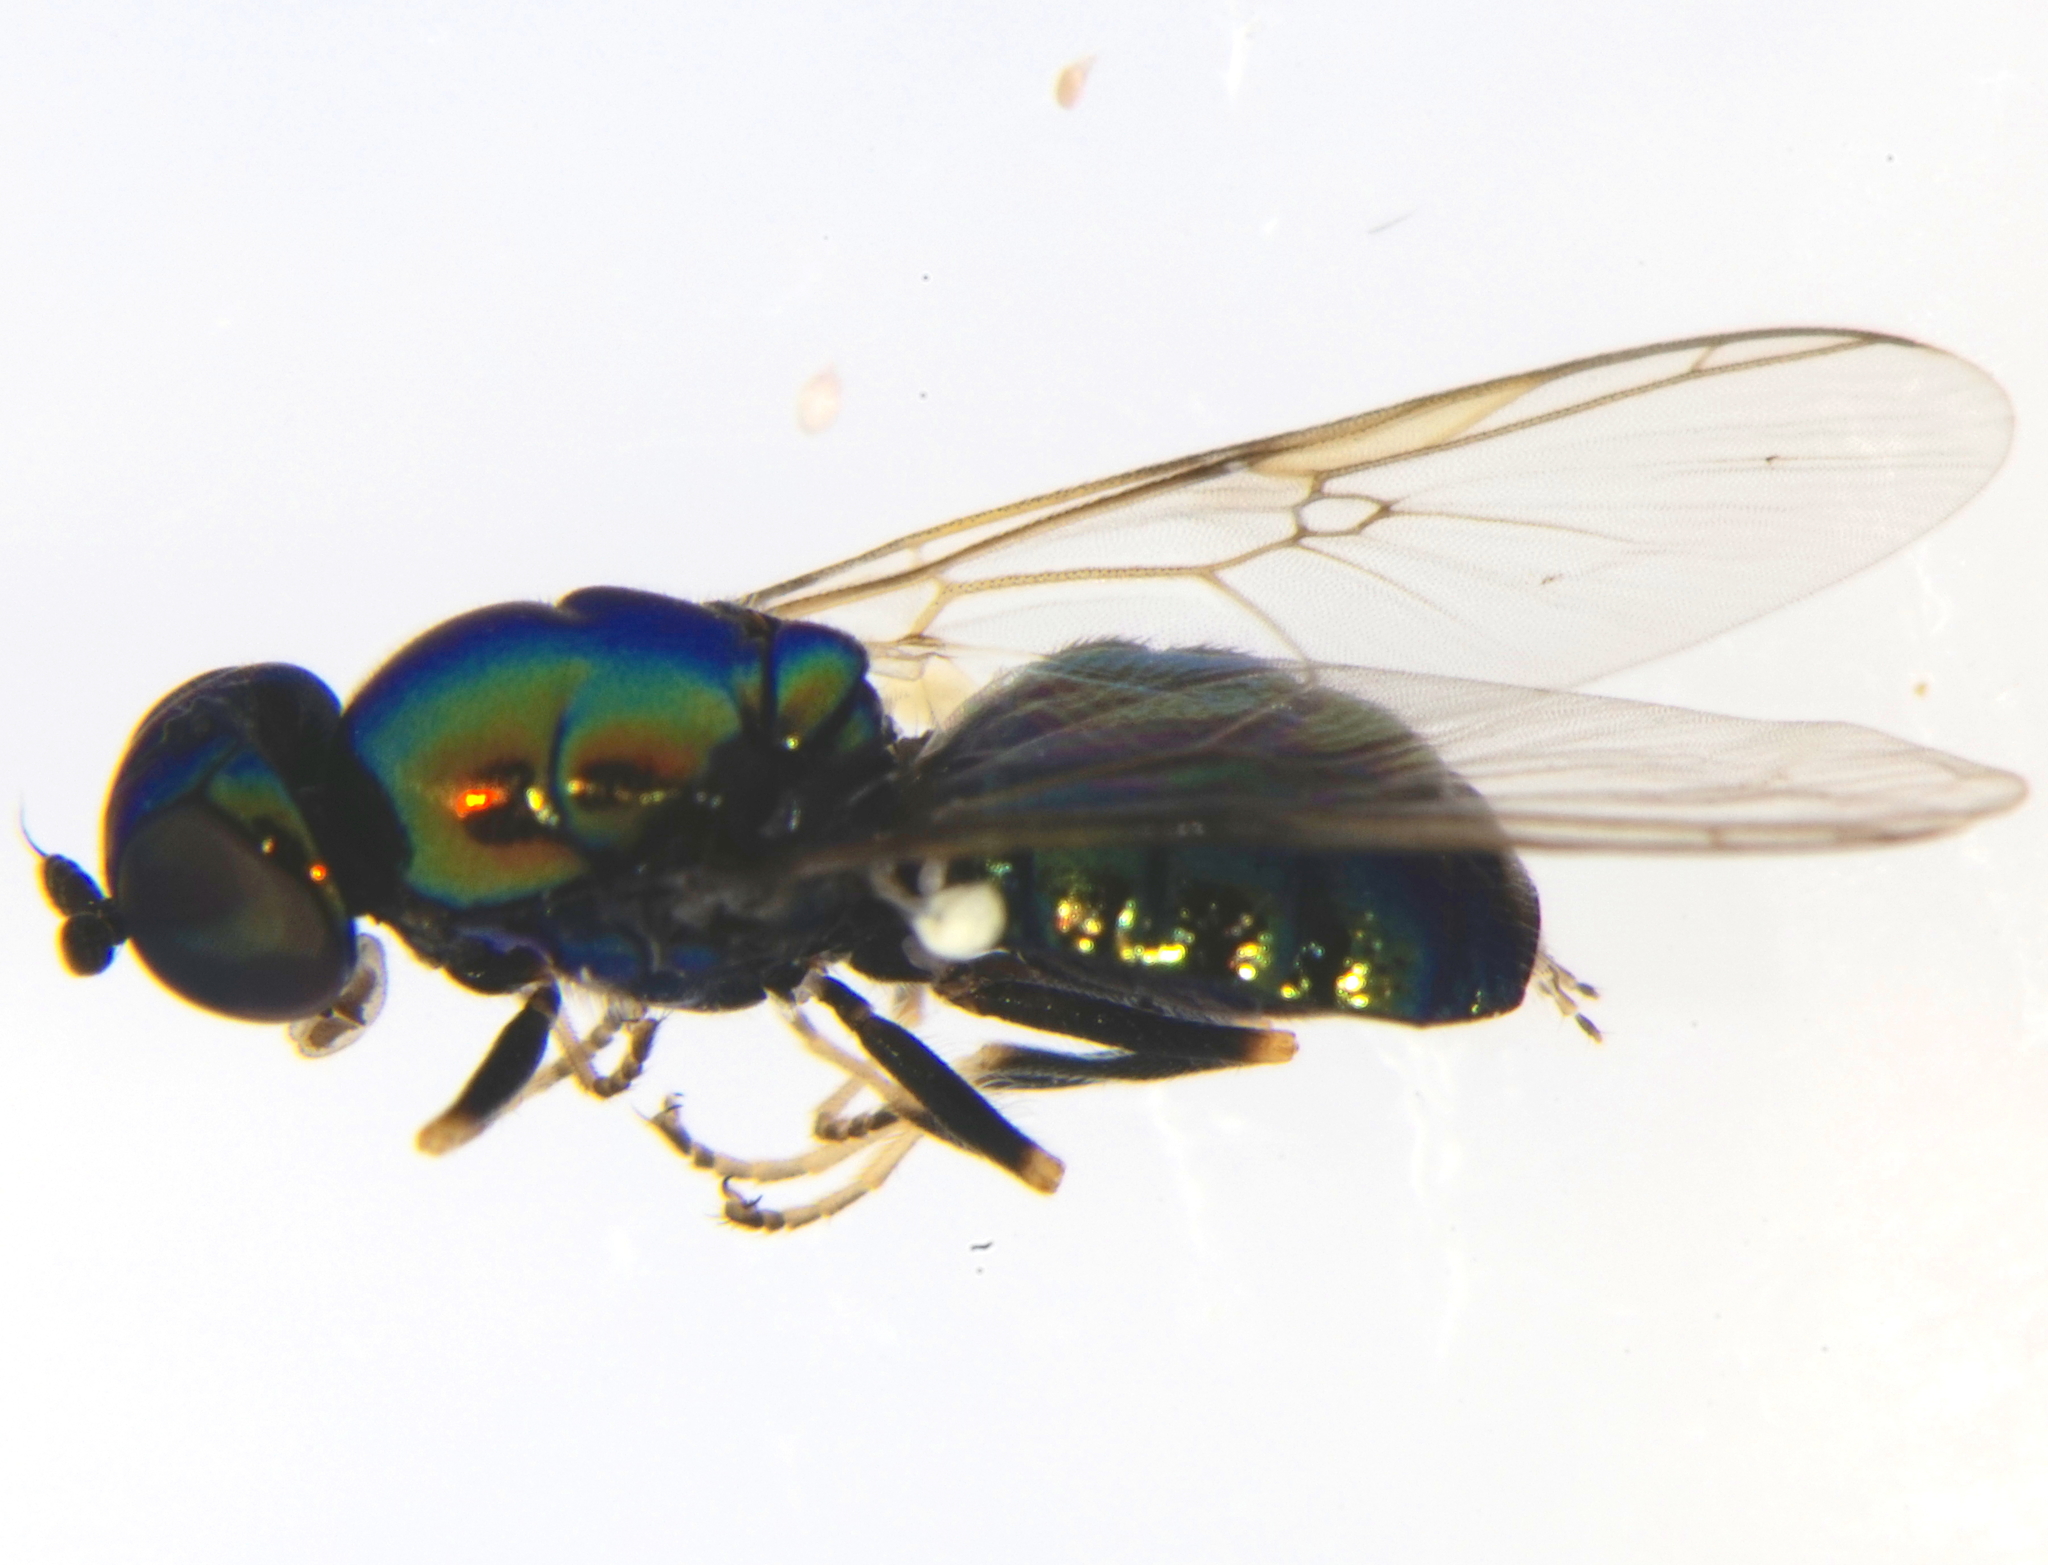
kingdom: Animalia
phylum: Arthropoda
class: Insecta
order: Diptera
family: Stratiomyidae
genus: Microchrysa
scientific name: Microchrysa polita
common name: Black-horned gem
